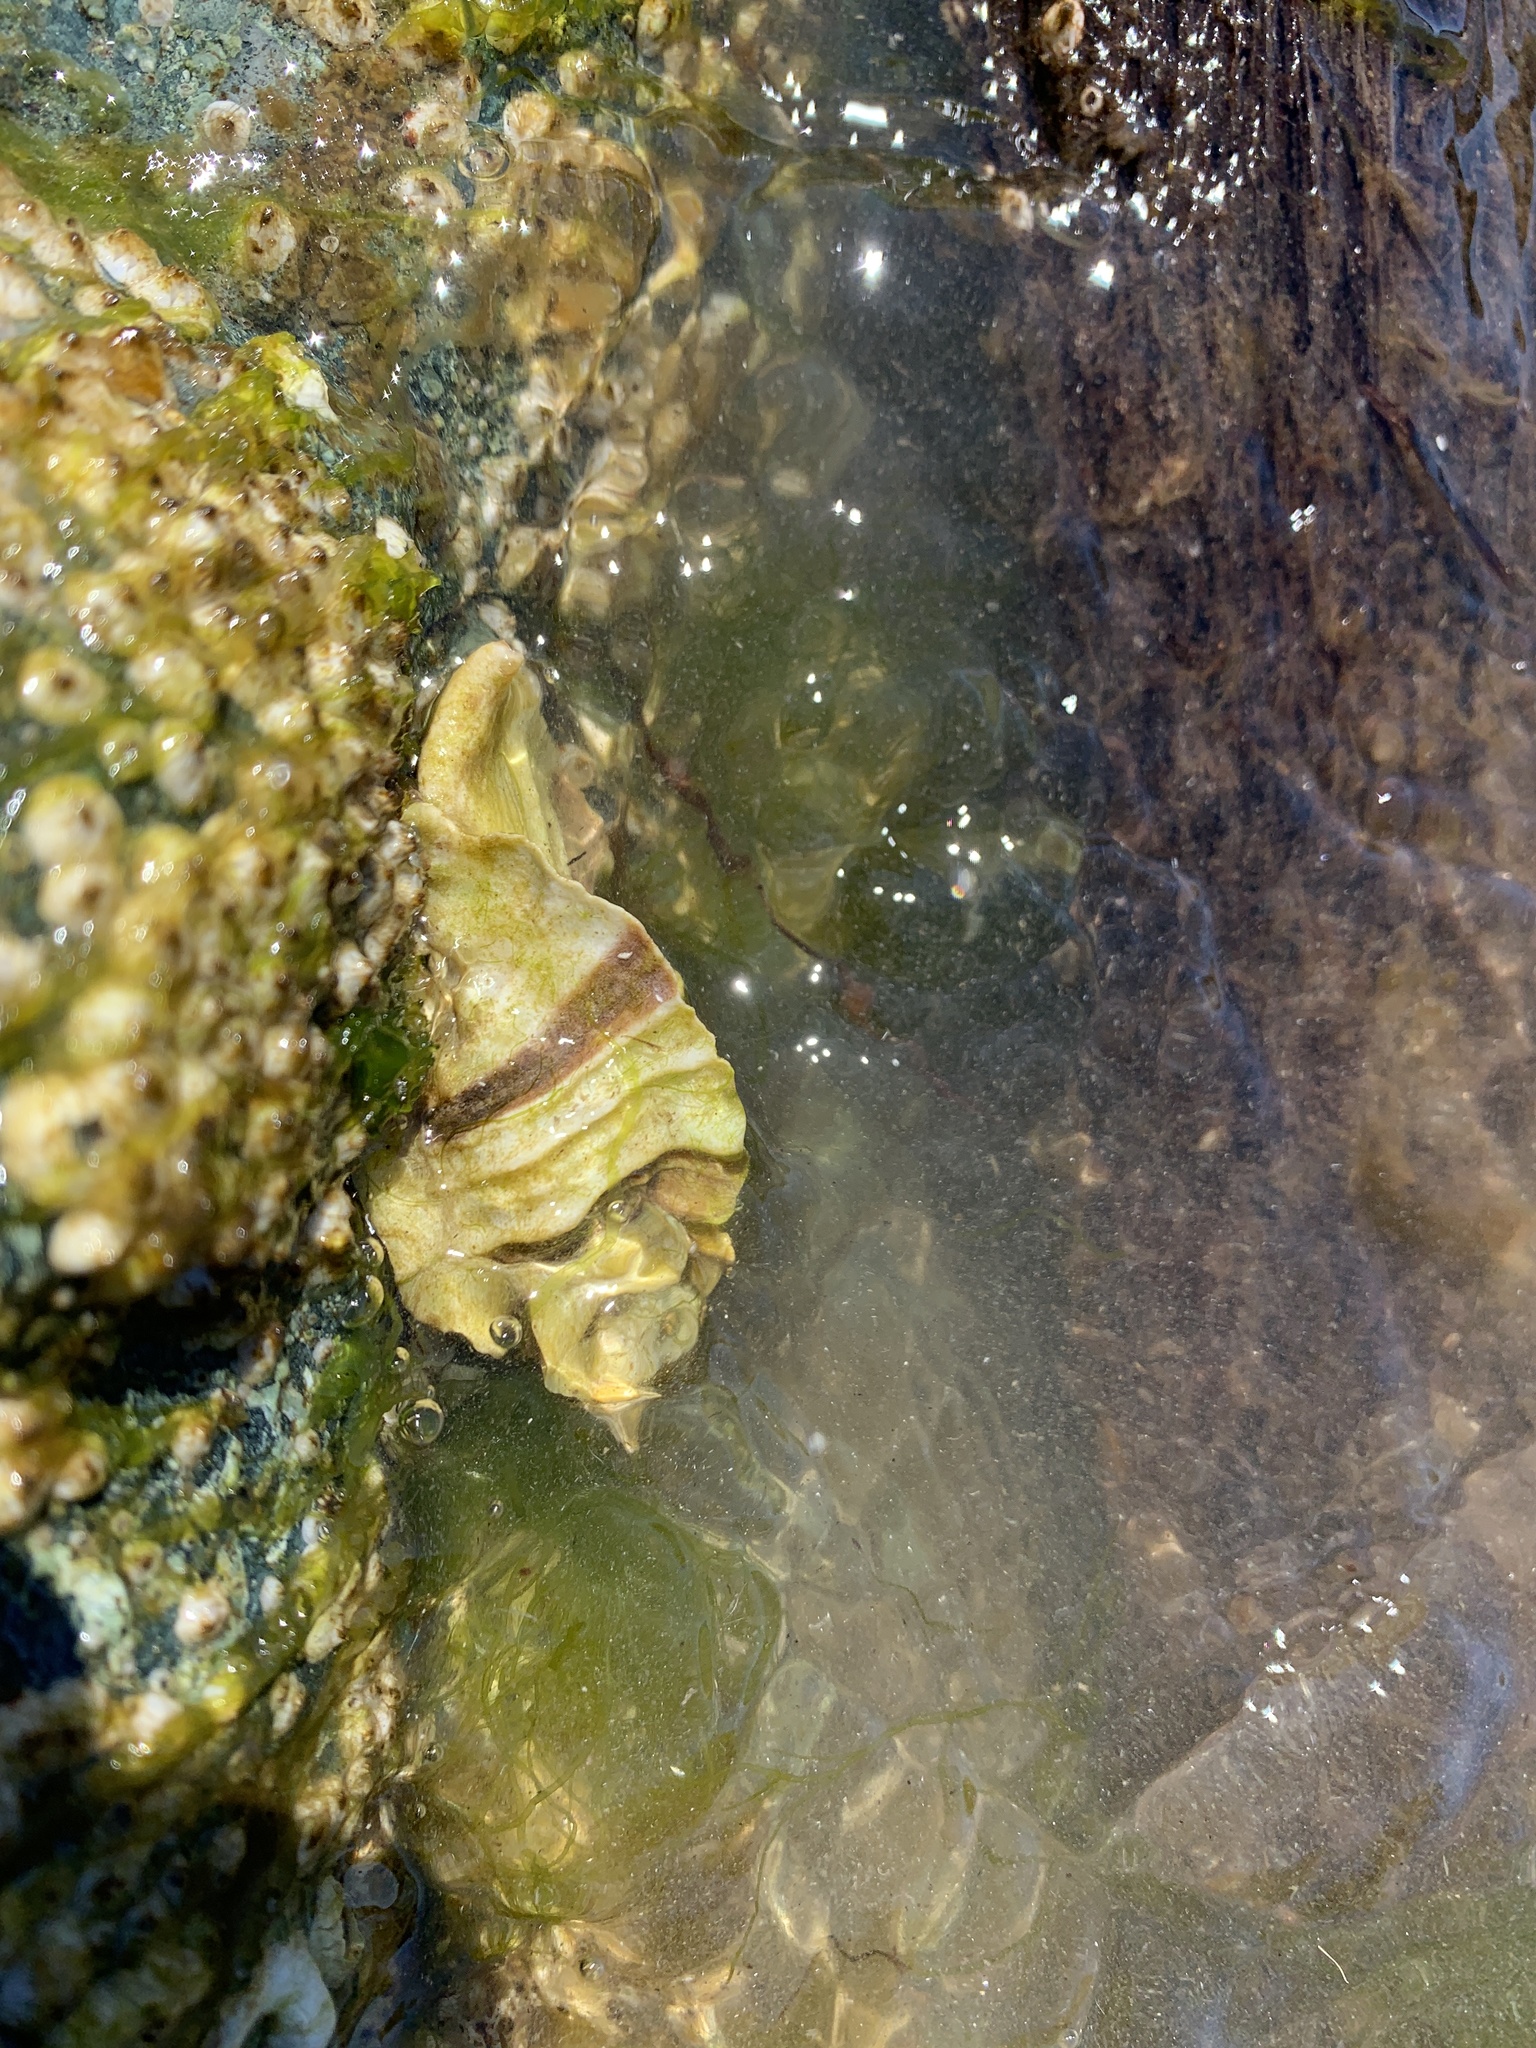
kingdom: Animalia
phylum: Mollusca
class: Gastropoda
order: Neogastropoda
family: Muricidae
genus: Ceratostoma
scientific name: Ceratostoma foliatum
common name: Foliate thorn purpura
